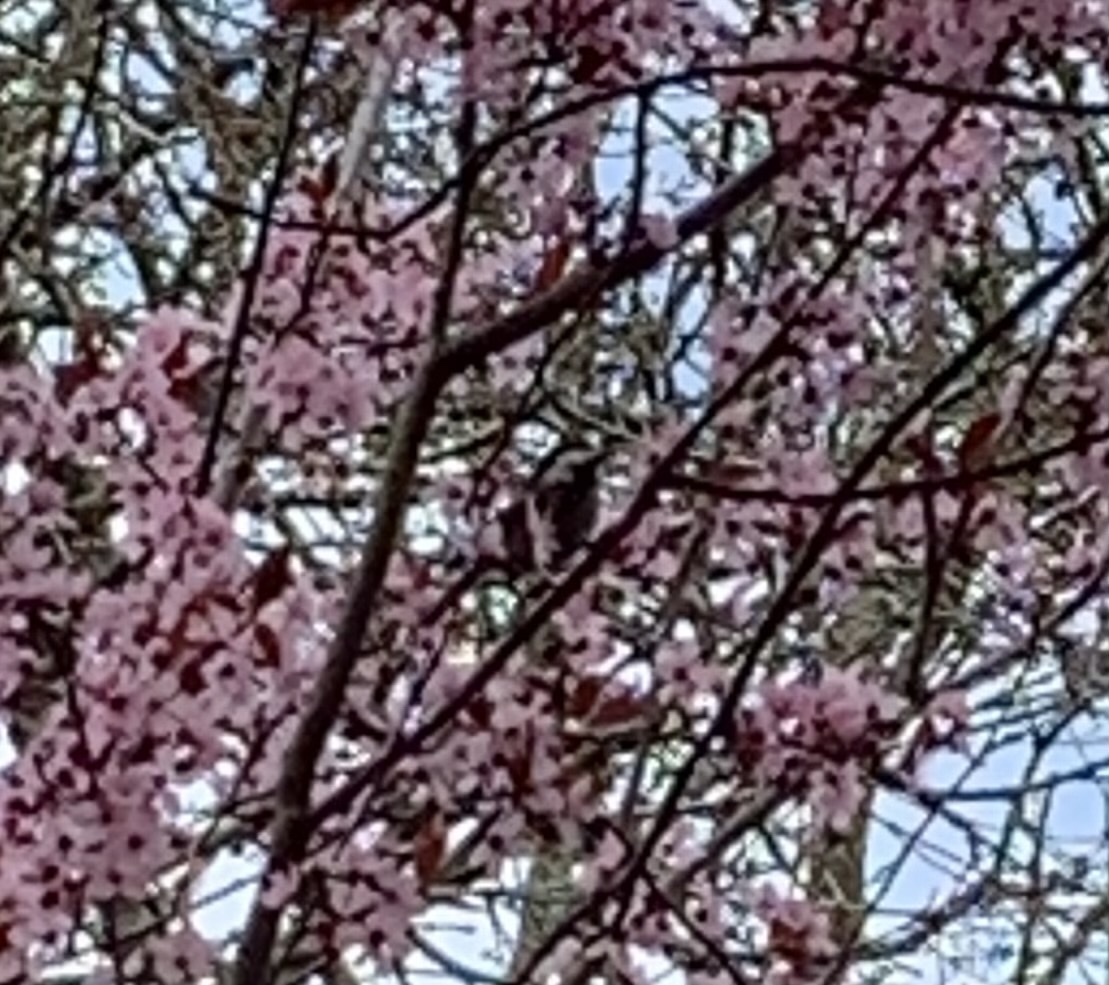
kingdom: Animalia
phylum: Chordata
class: Aves
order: Passeriformes
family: Paridae
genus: Poecile
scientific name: Poecile rufescens
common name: Chestnut-backed chickadee
